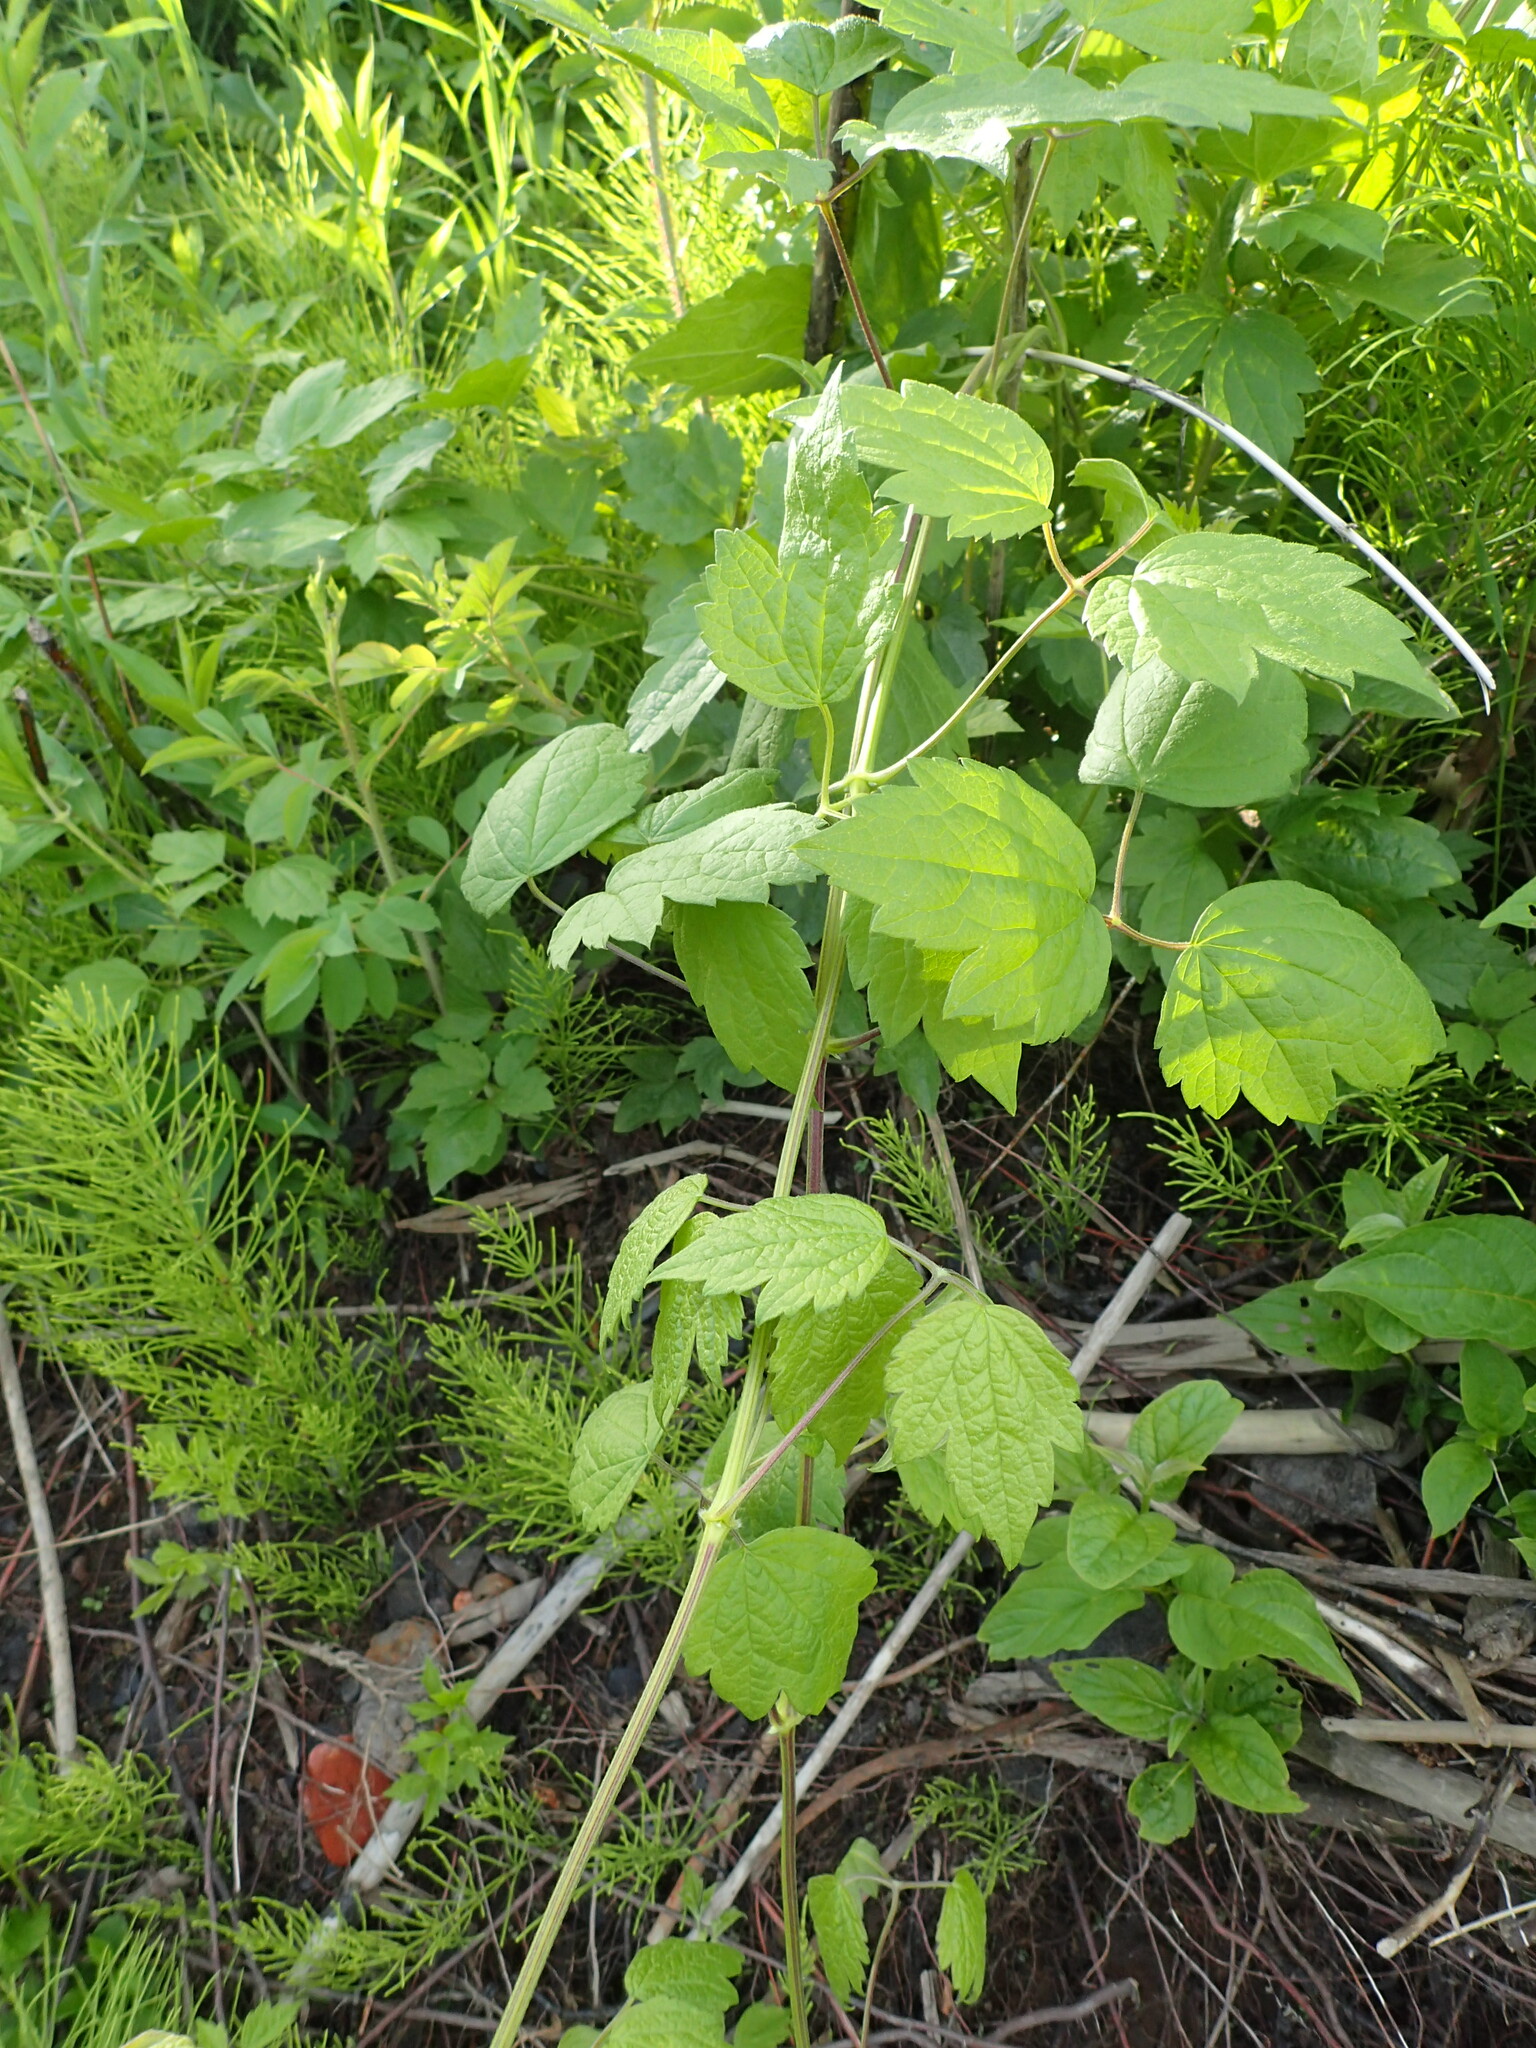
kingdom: Plantae
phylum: Tracheophyta
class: Magnoliopsida
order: Ranunculales
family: Ranunculaceae
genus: Clematis
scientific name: Clematis virginiana
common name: Virgin's-bower
